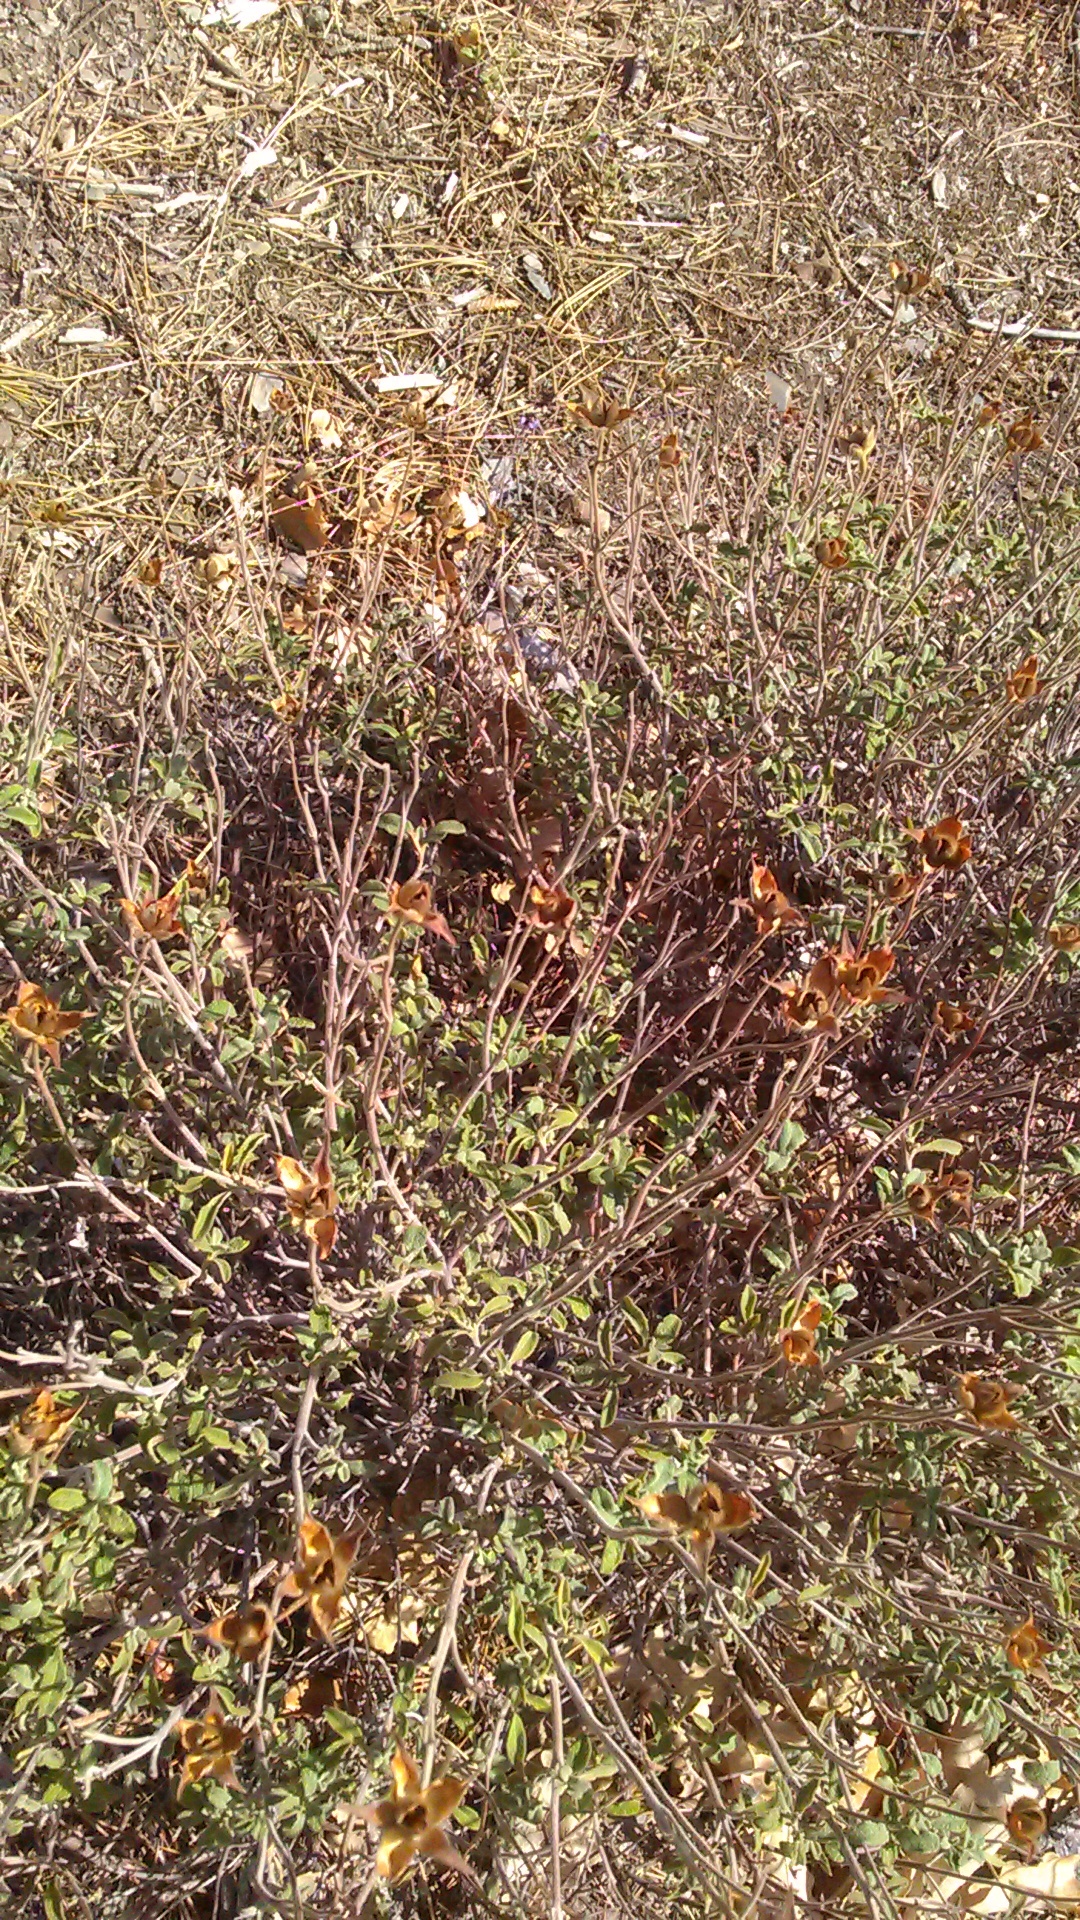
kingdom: Plantae
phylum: Tracheophyta
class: Magnoliopsida
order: Malvales
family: Cistaceae
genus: Cistus
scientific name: Cistus tauricus
